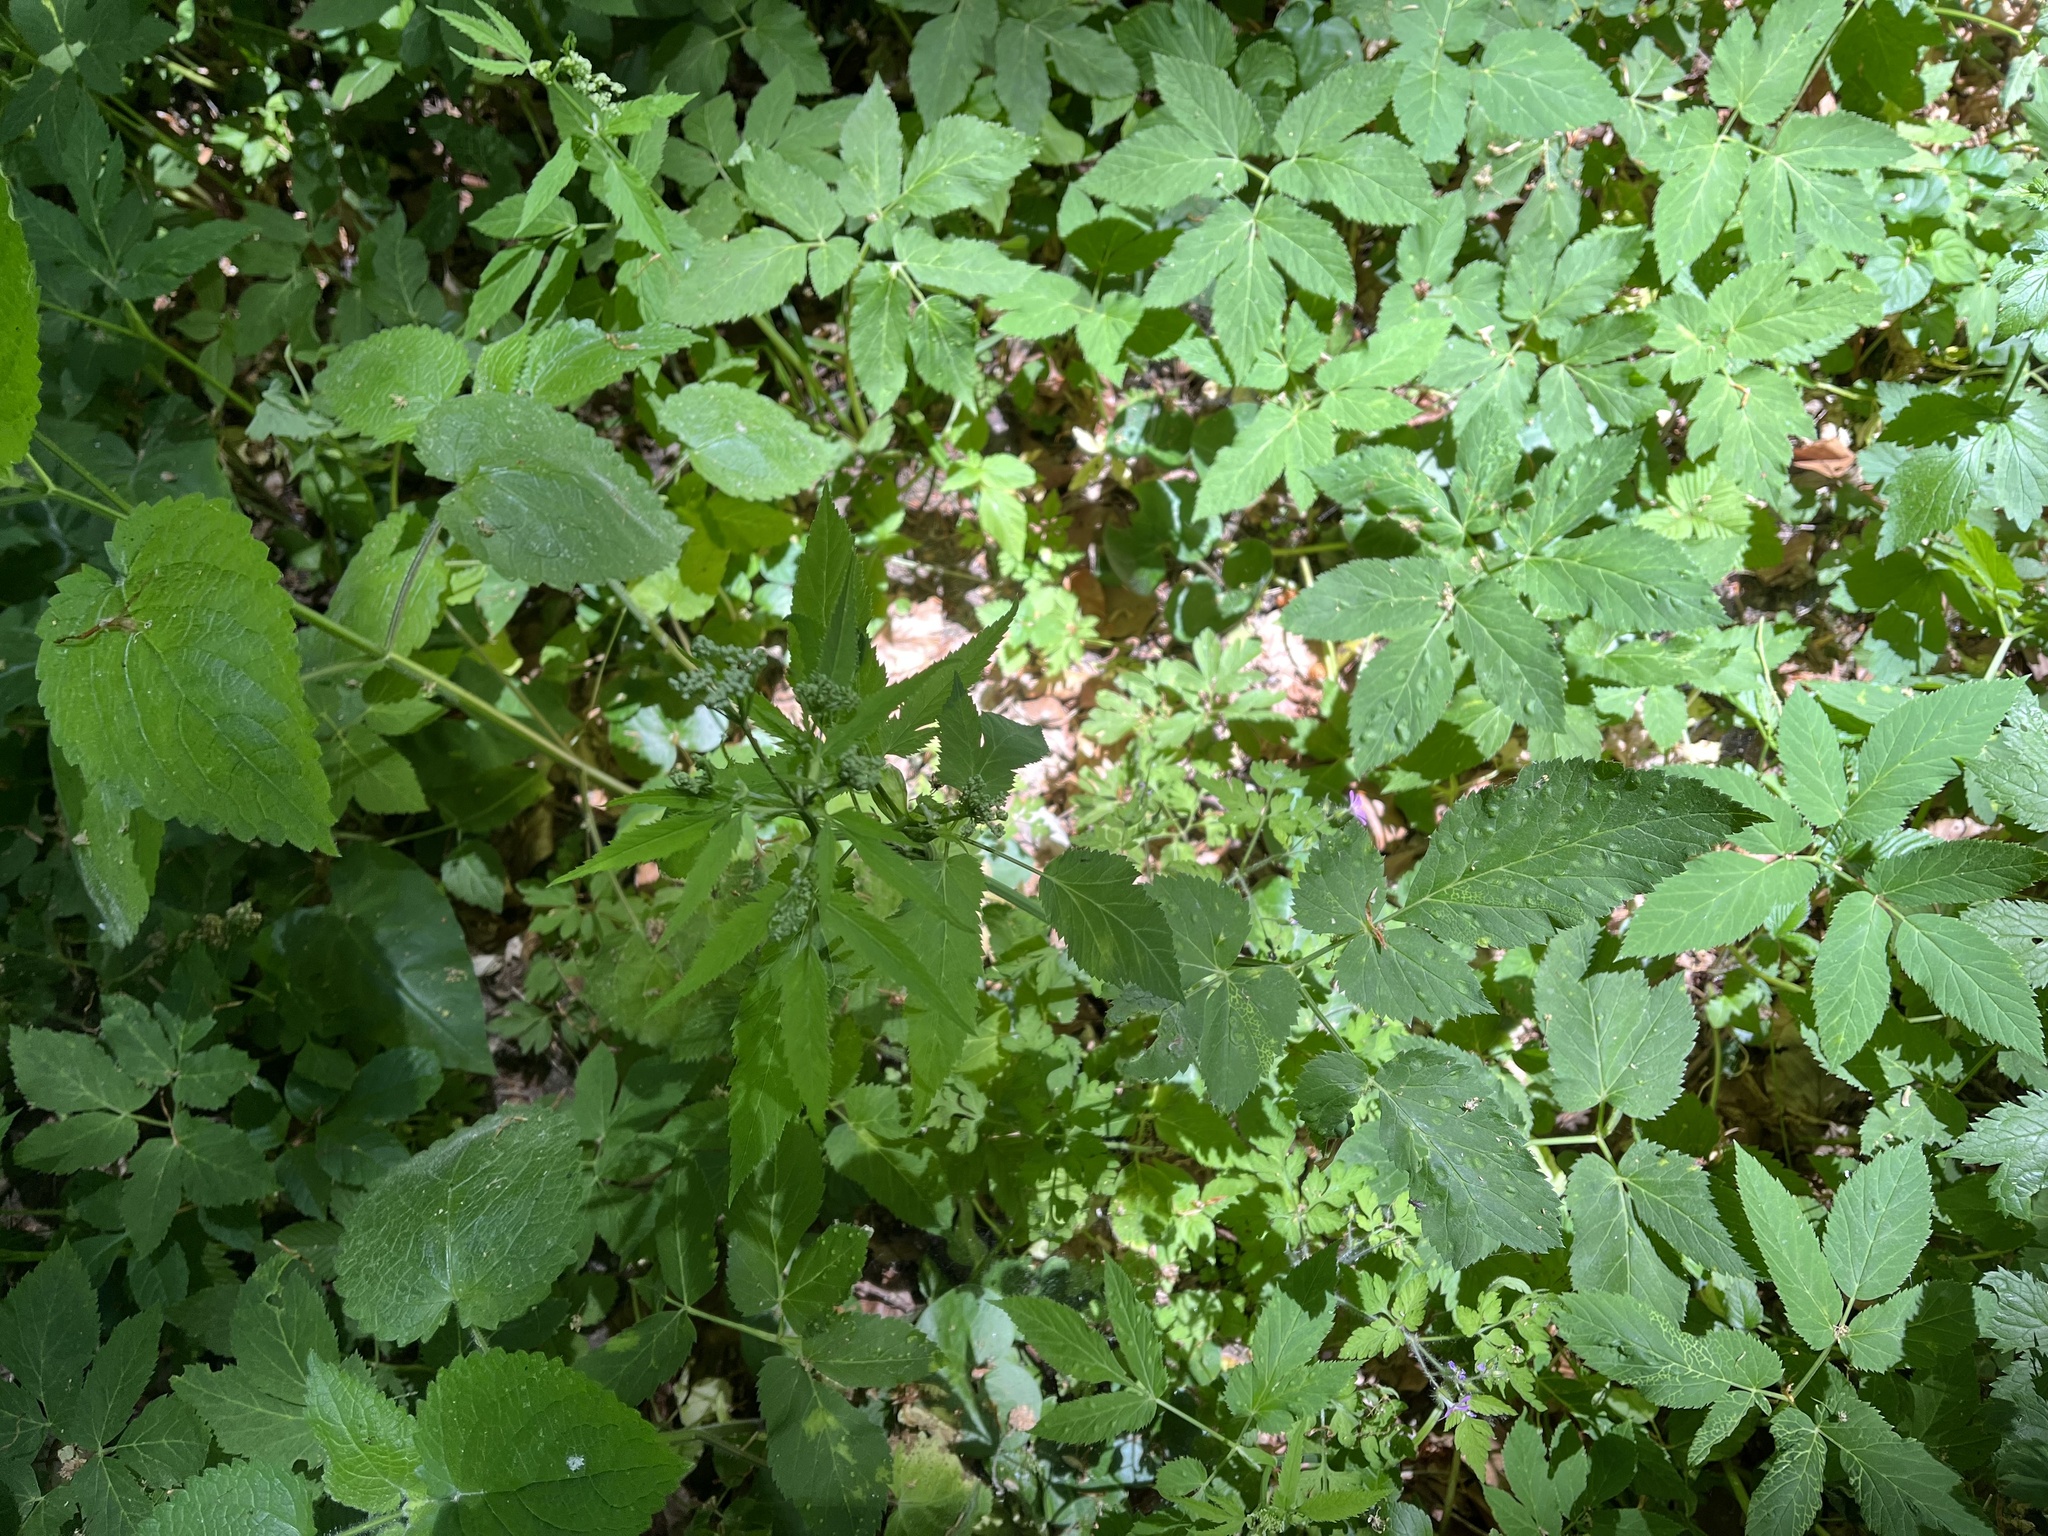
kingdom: Plantae
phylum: Tracheophyta
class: Magnoliopsida
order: Apiales
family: Apiaceae
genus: Aegopodium
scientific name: Aegopodium podagraria
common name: Ground-elder
